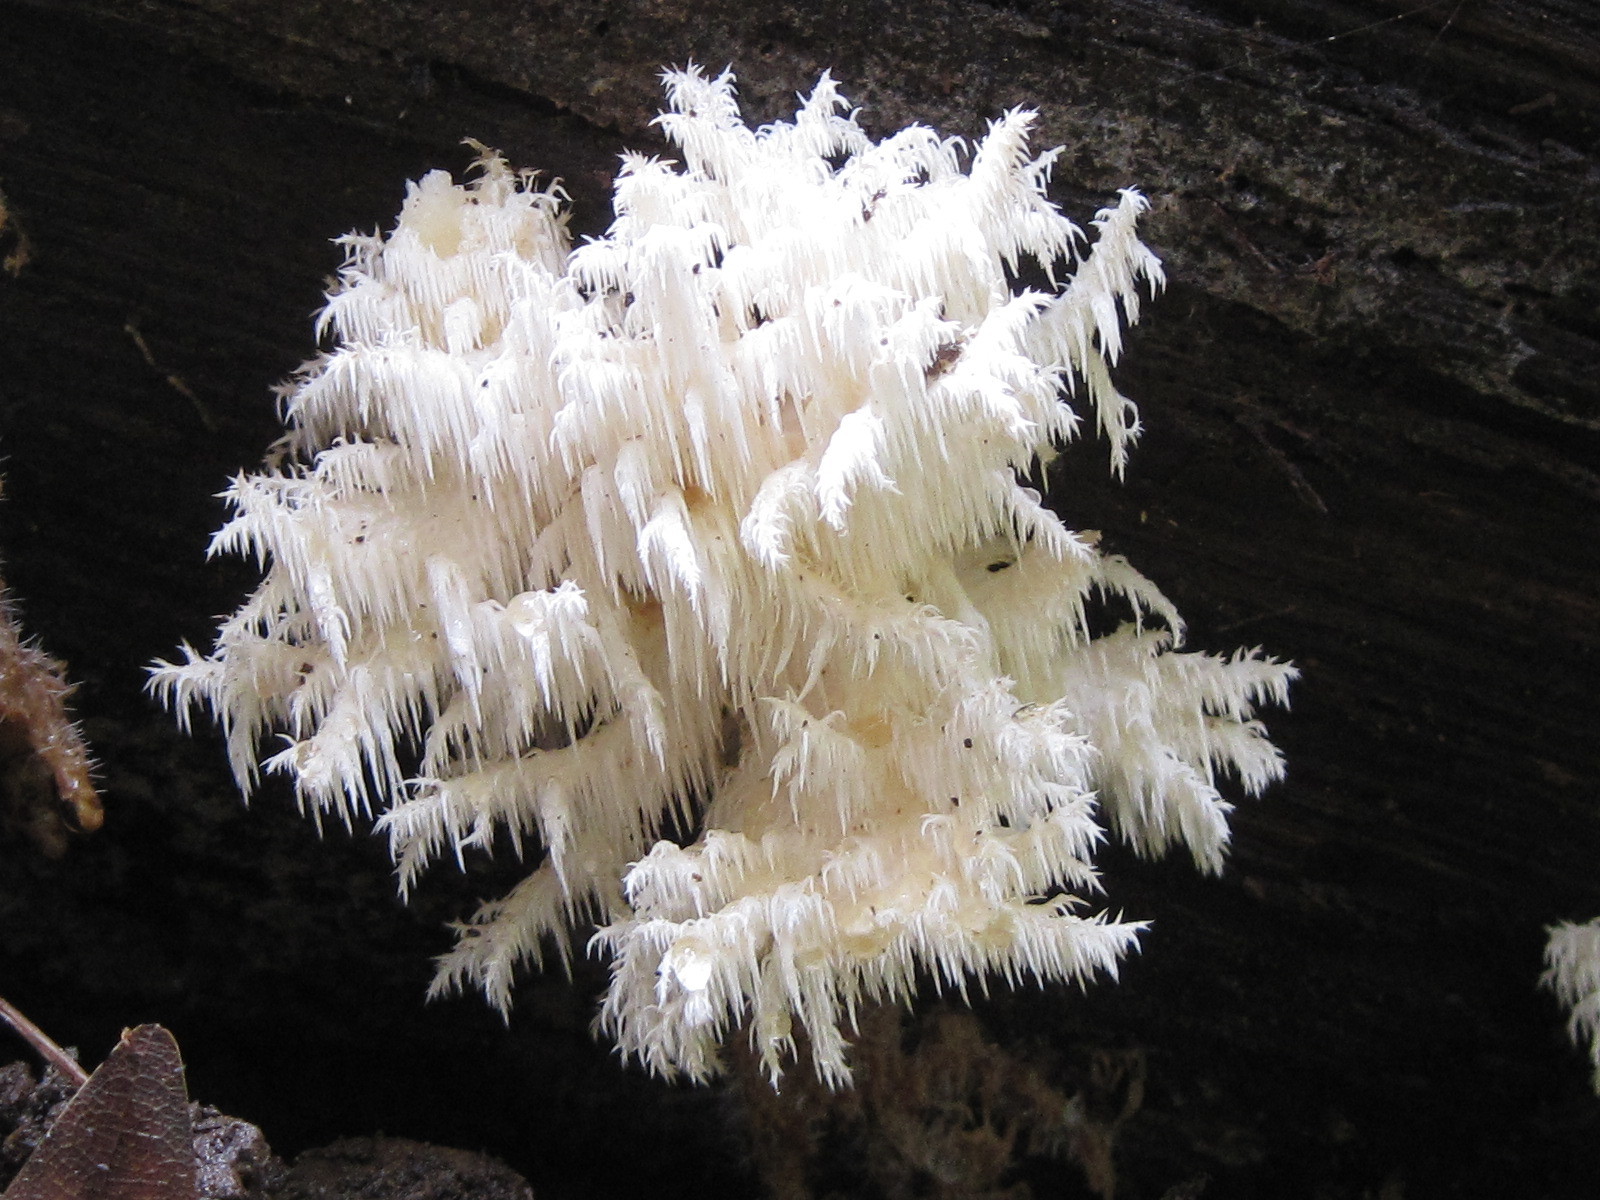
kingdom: Fungi
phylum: Basidiomycota
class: Agaricomycetes
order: Russulales
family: Hericiaceae
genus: Hericium
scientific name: Hericium coralloides
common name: Coral tooth
